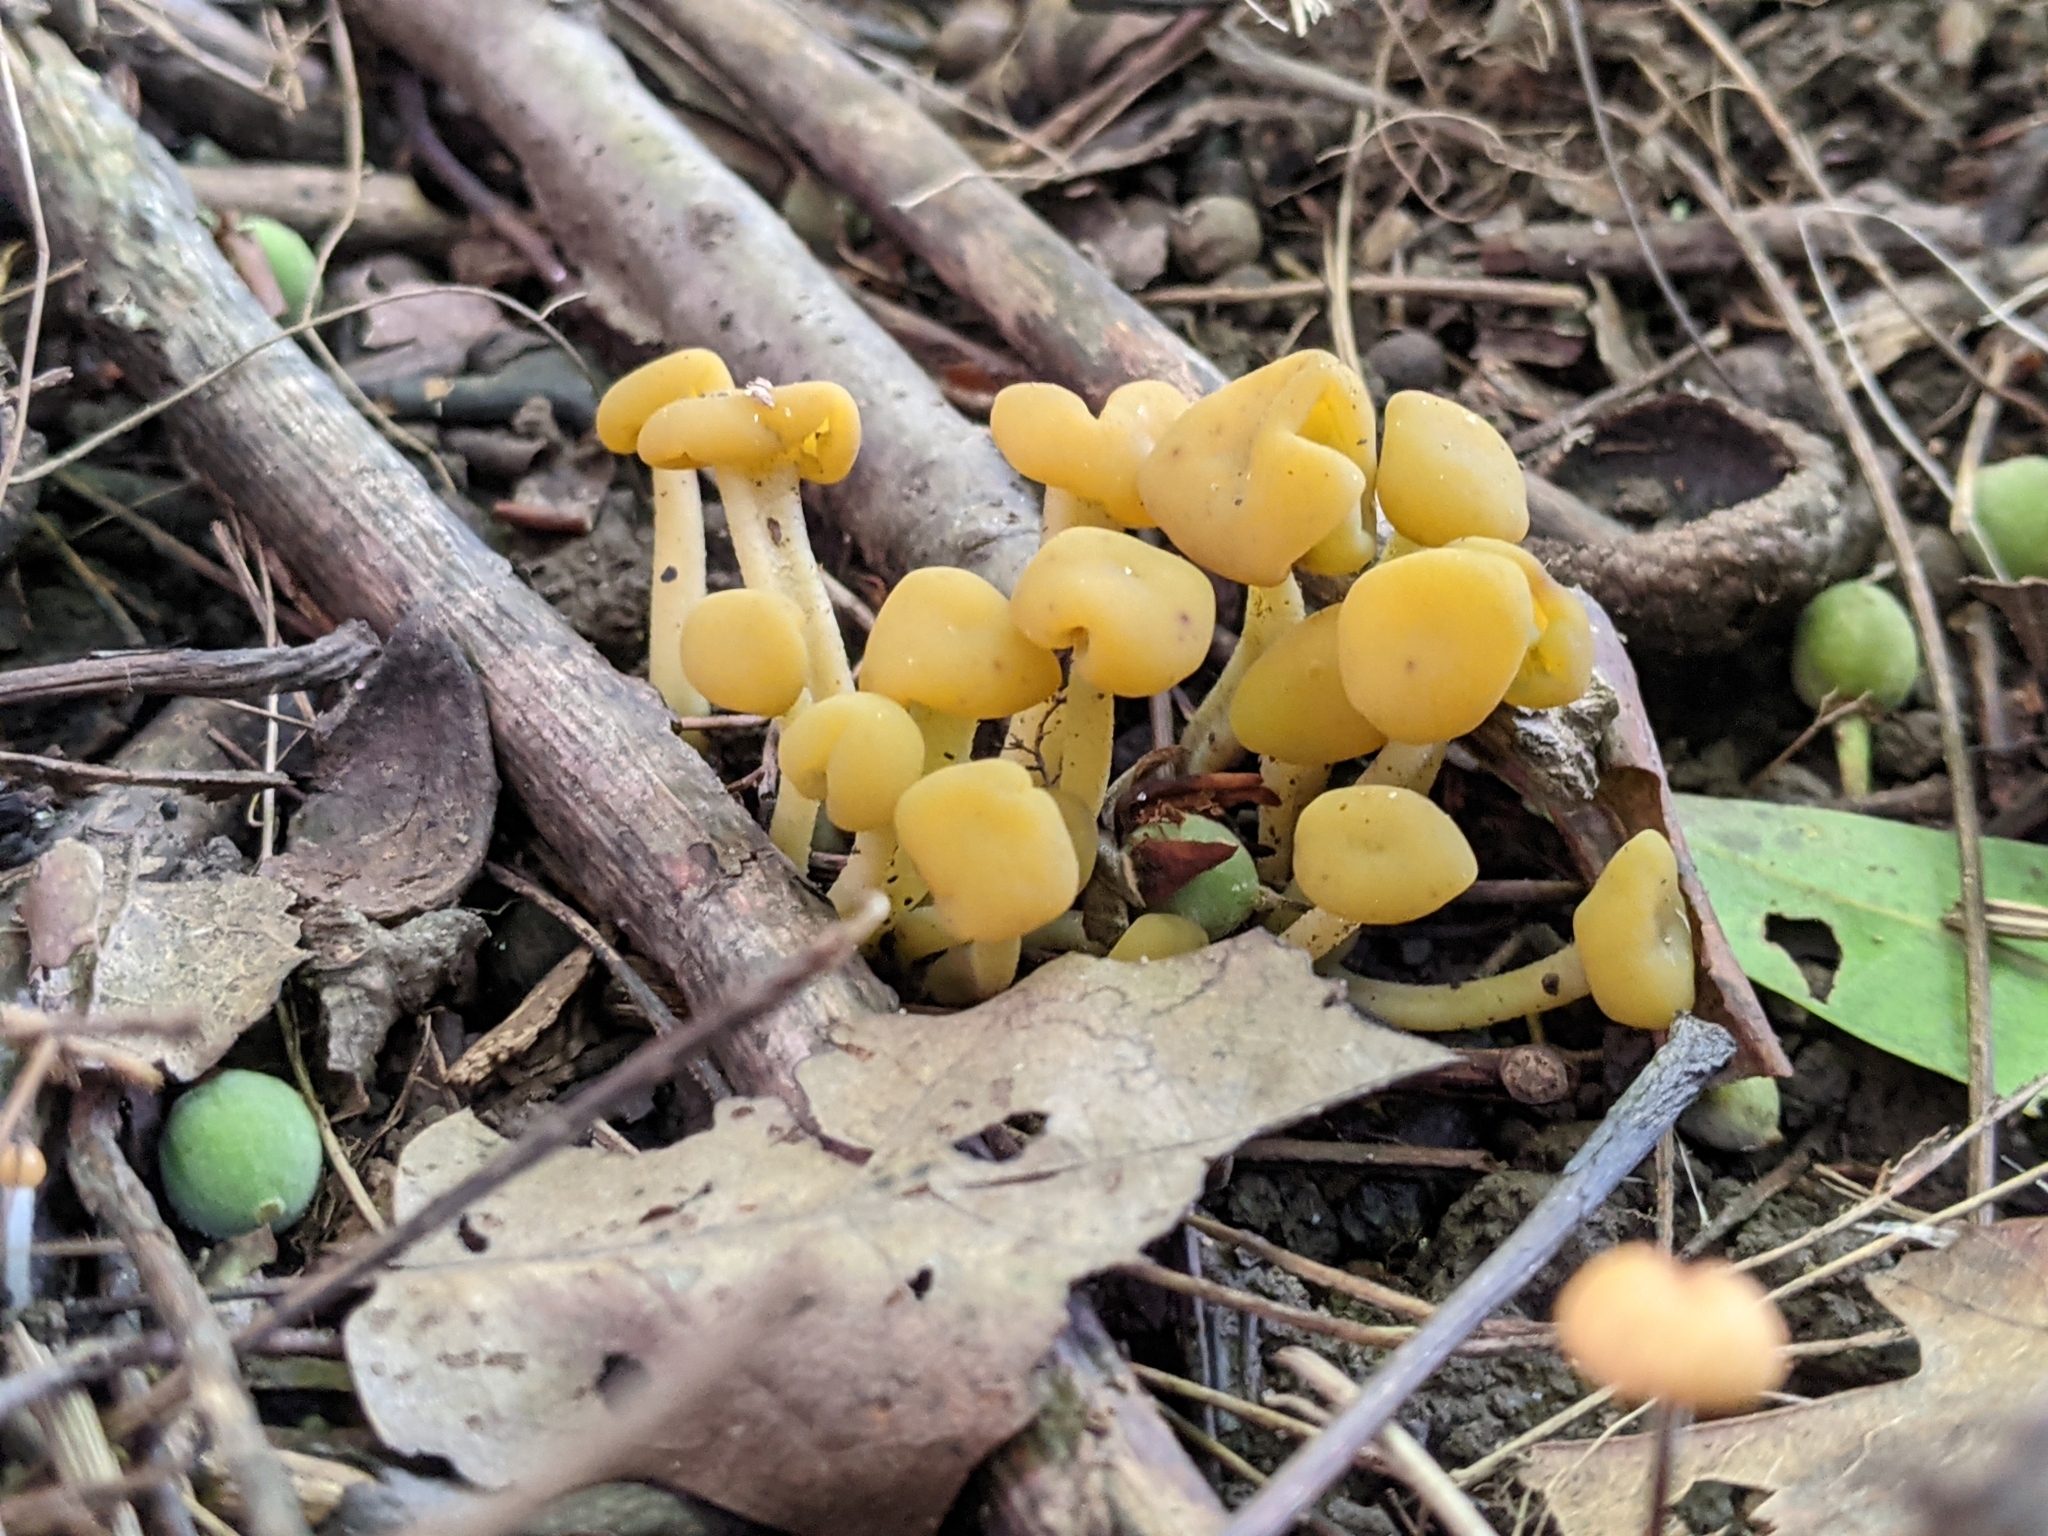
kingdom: Fungi
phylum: Ascomycota
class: Leotiomycetes
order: Leotiales
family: Leotiaceae
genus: Leotia
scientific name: Leotia lubrica
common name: Jellybaby
